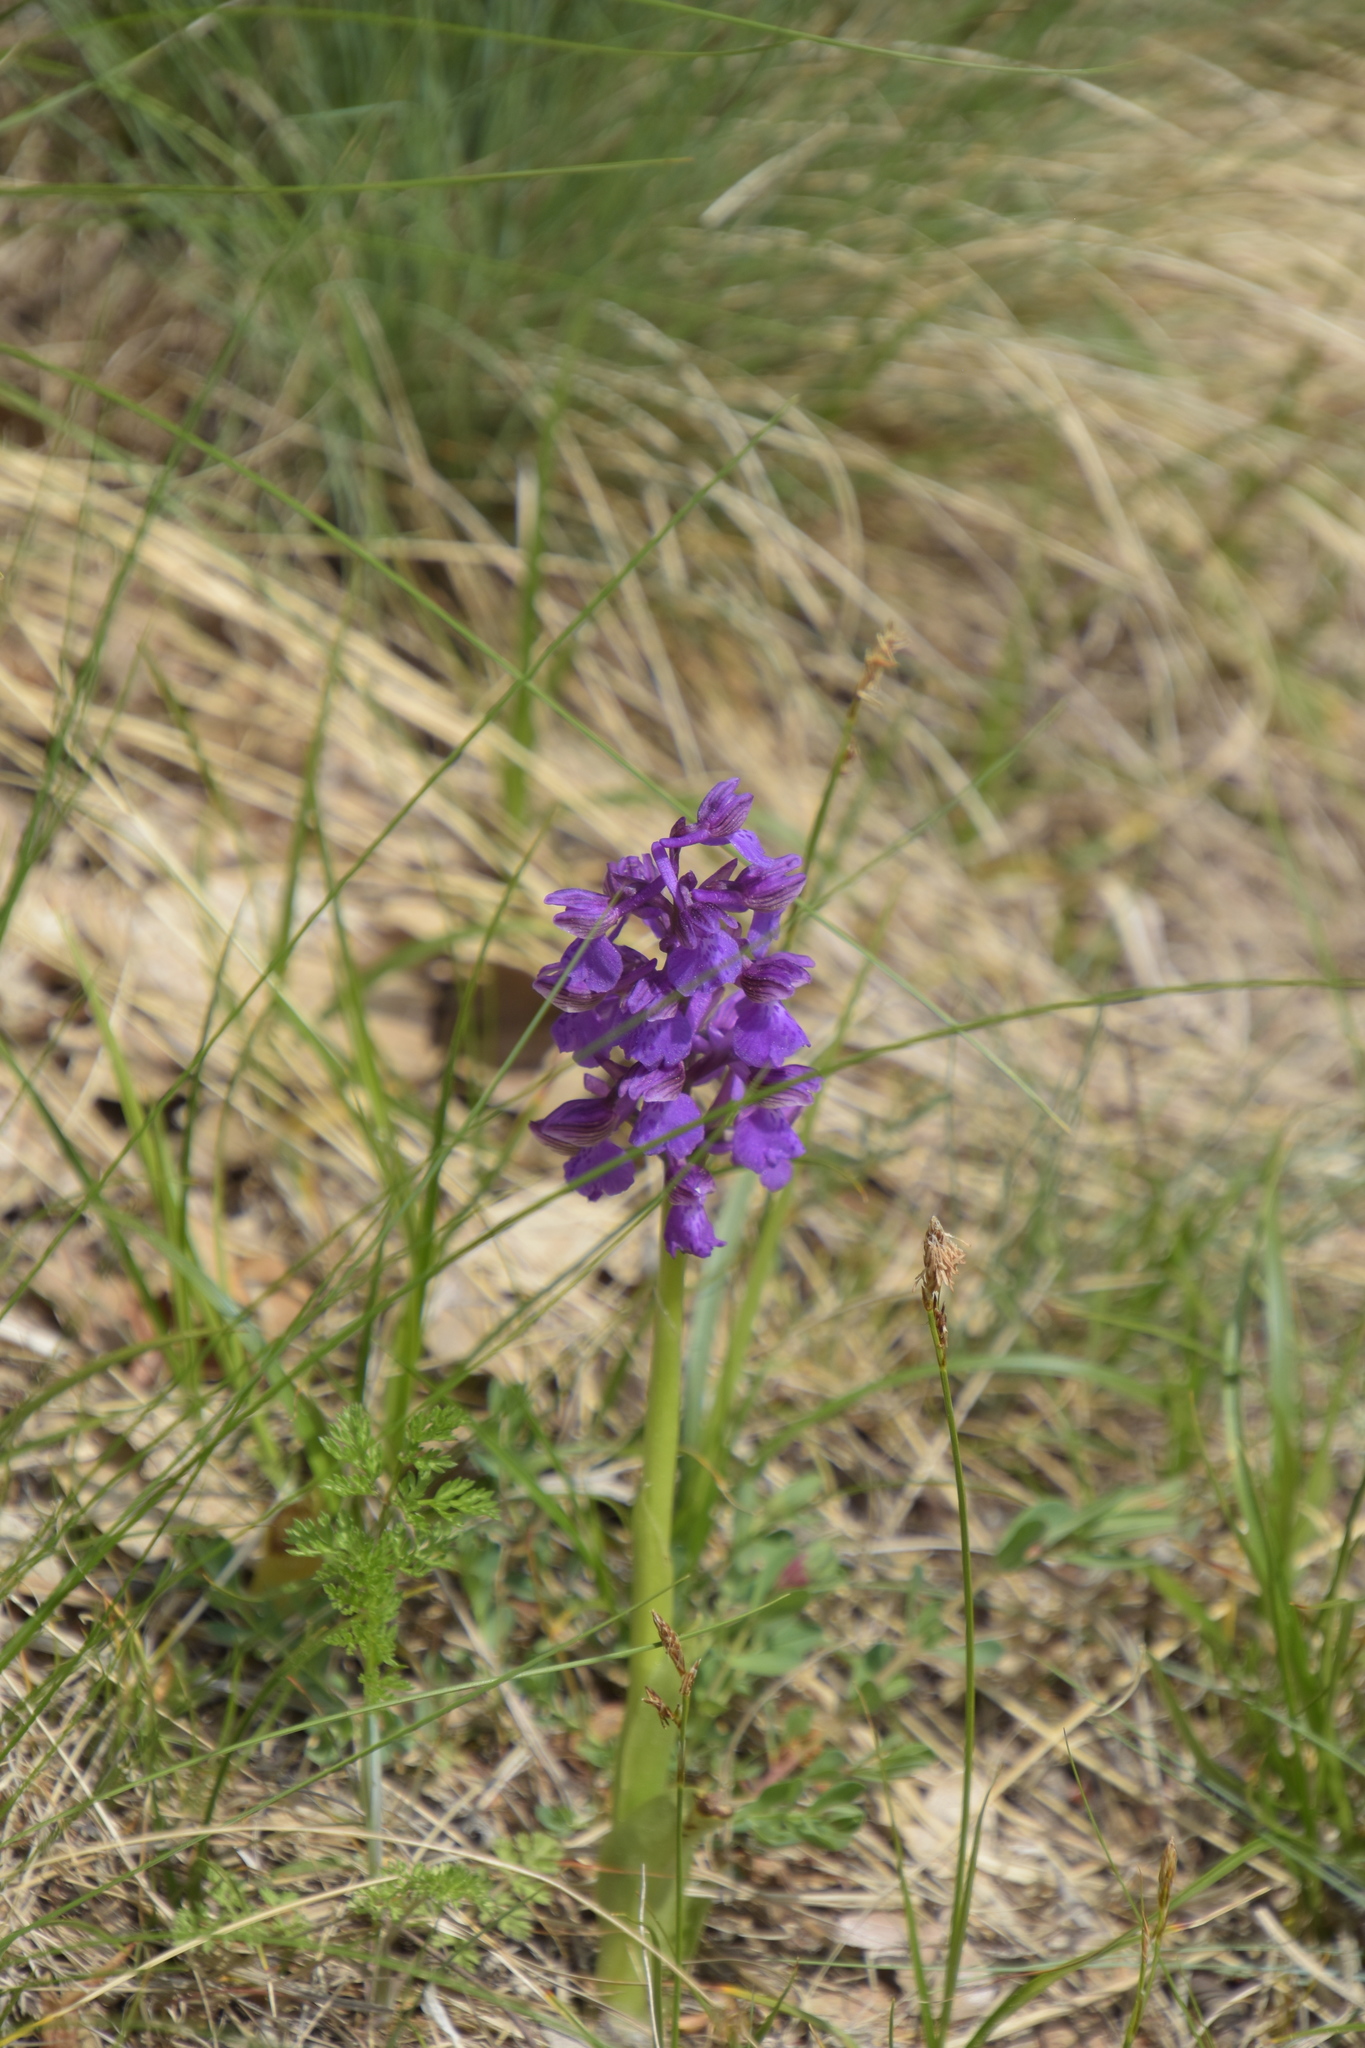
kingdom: Plantae
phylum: Tracheophyta
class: Liliopsida
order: Asparagales
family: Orchidaceae
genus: Anacamptis
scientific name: Anacamptis morio
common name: Green-winged orchid
